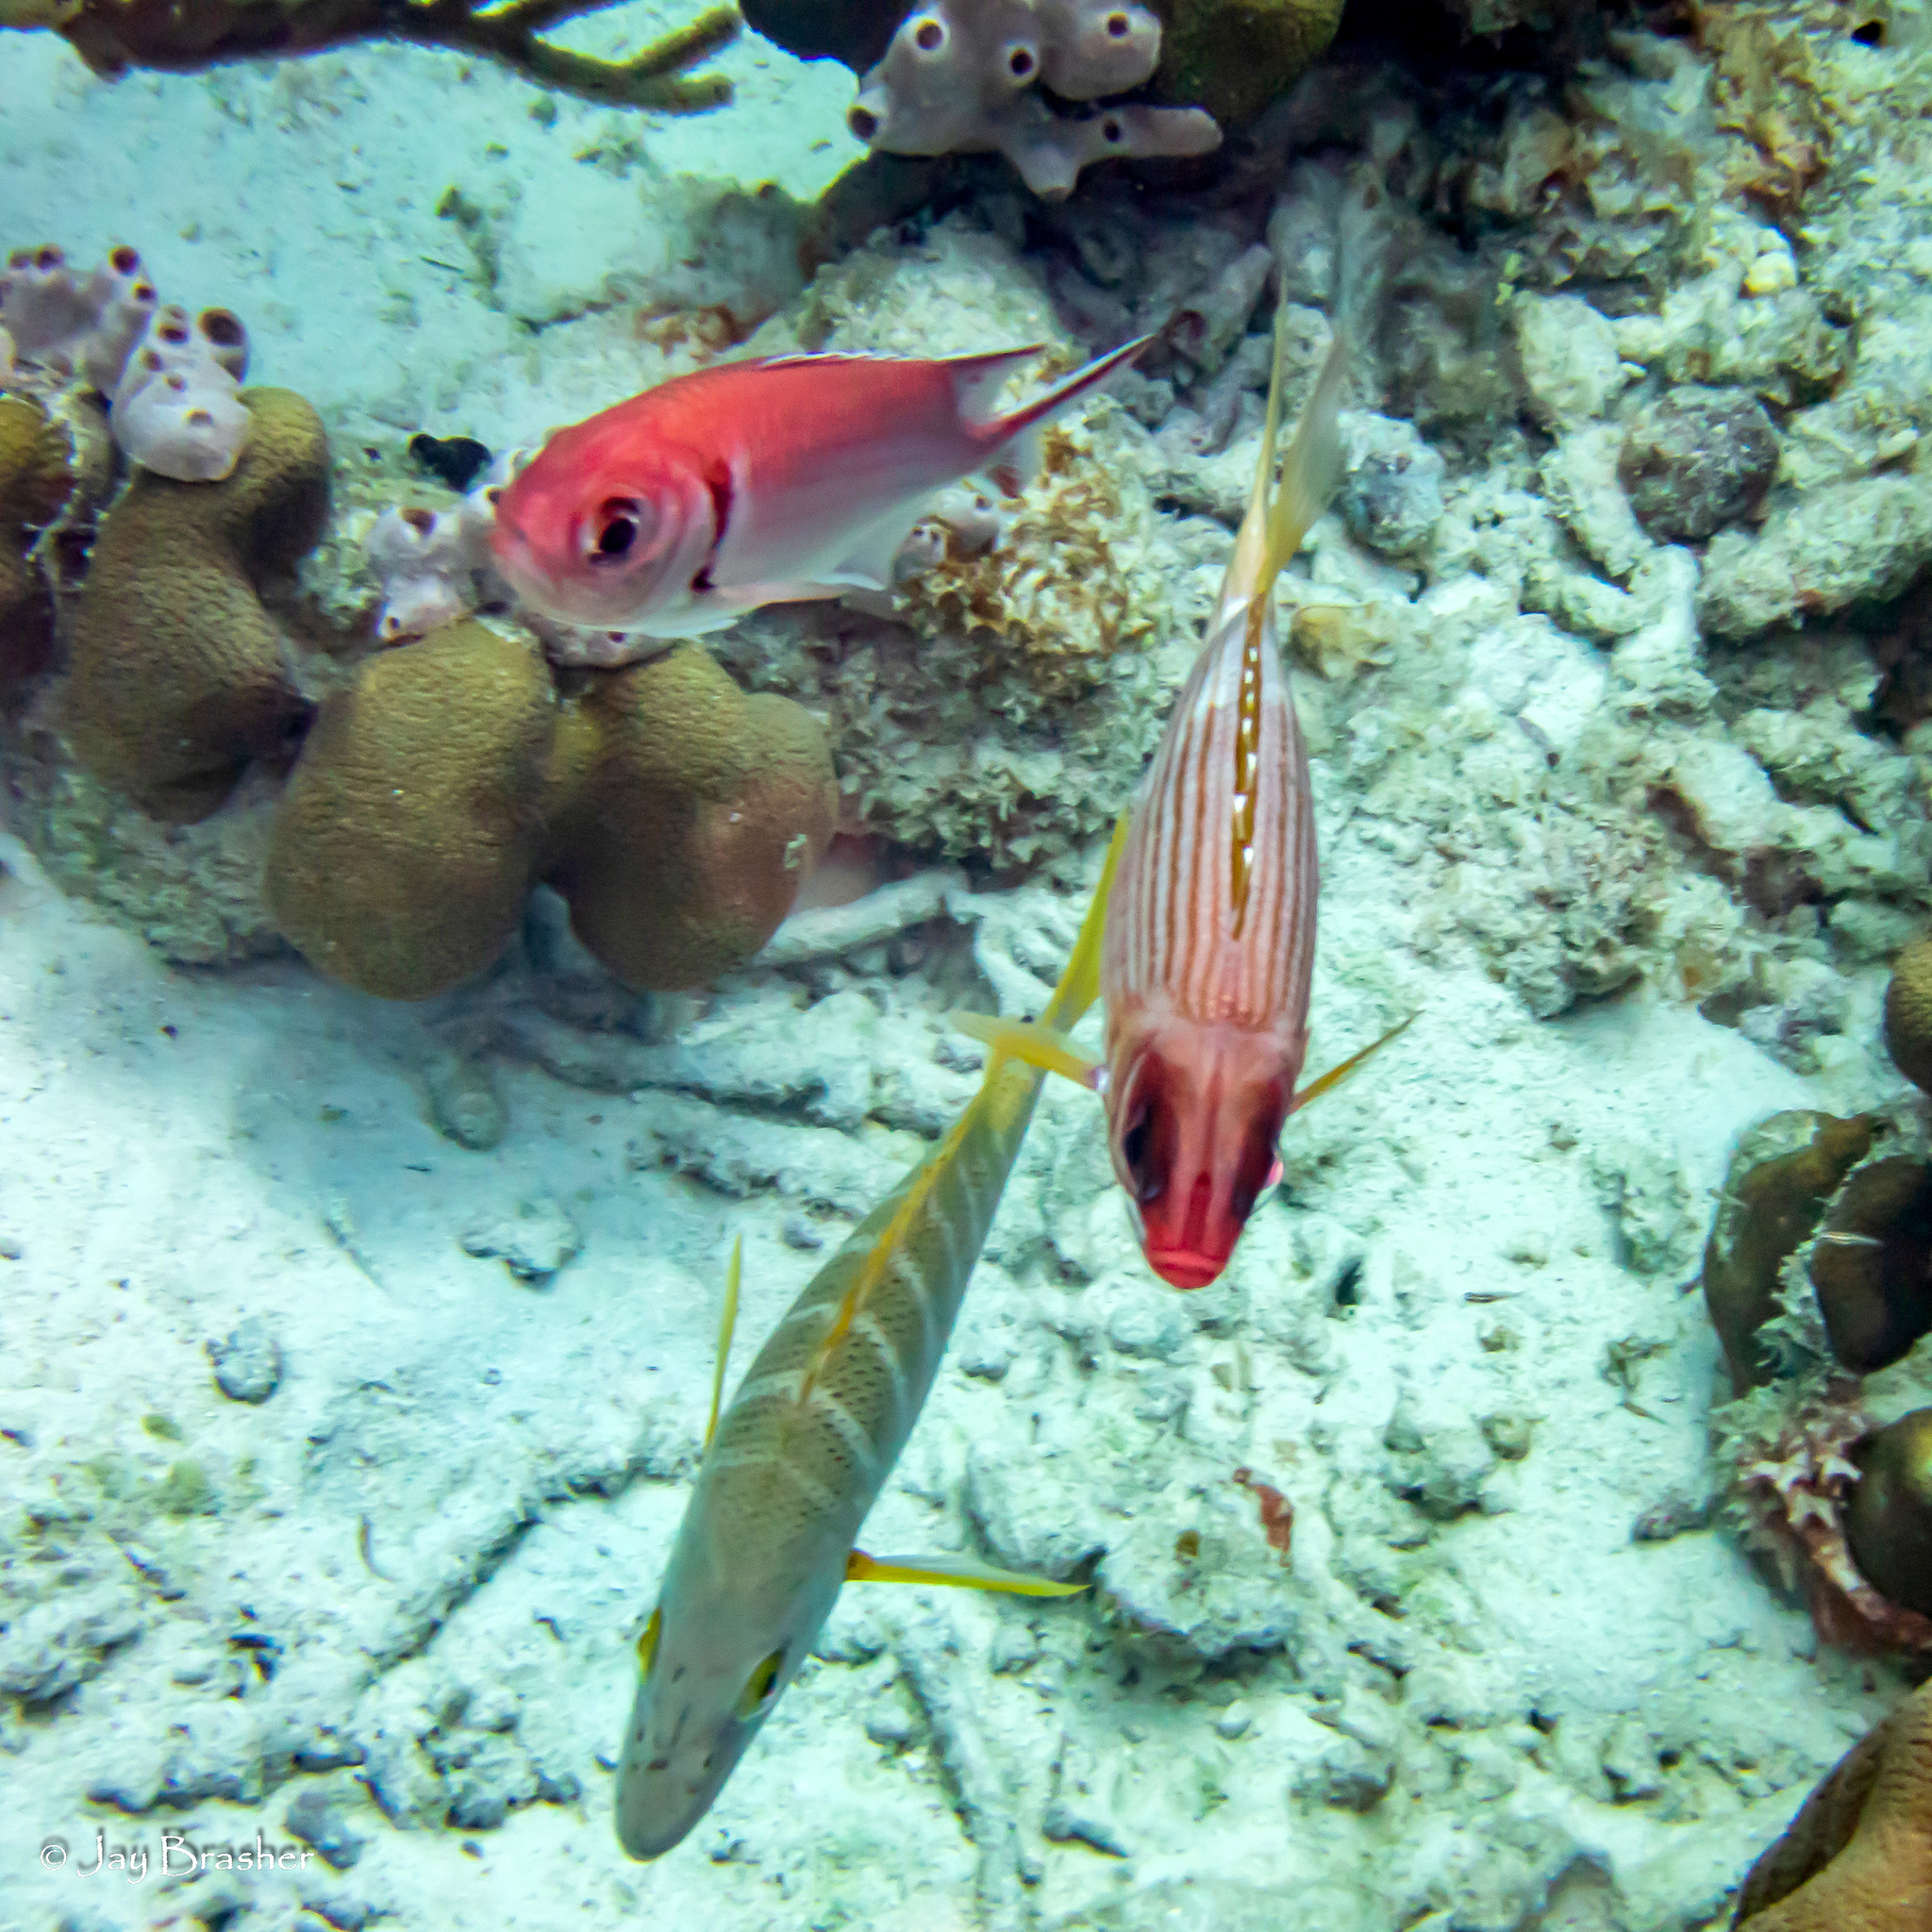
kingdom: Animalia
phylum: Chordata
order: Perciformes
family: Lutjanidae
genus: Lutjanus
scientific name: Lutjanus apodus
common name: Schoolmaster
